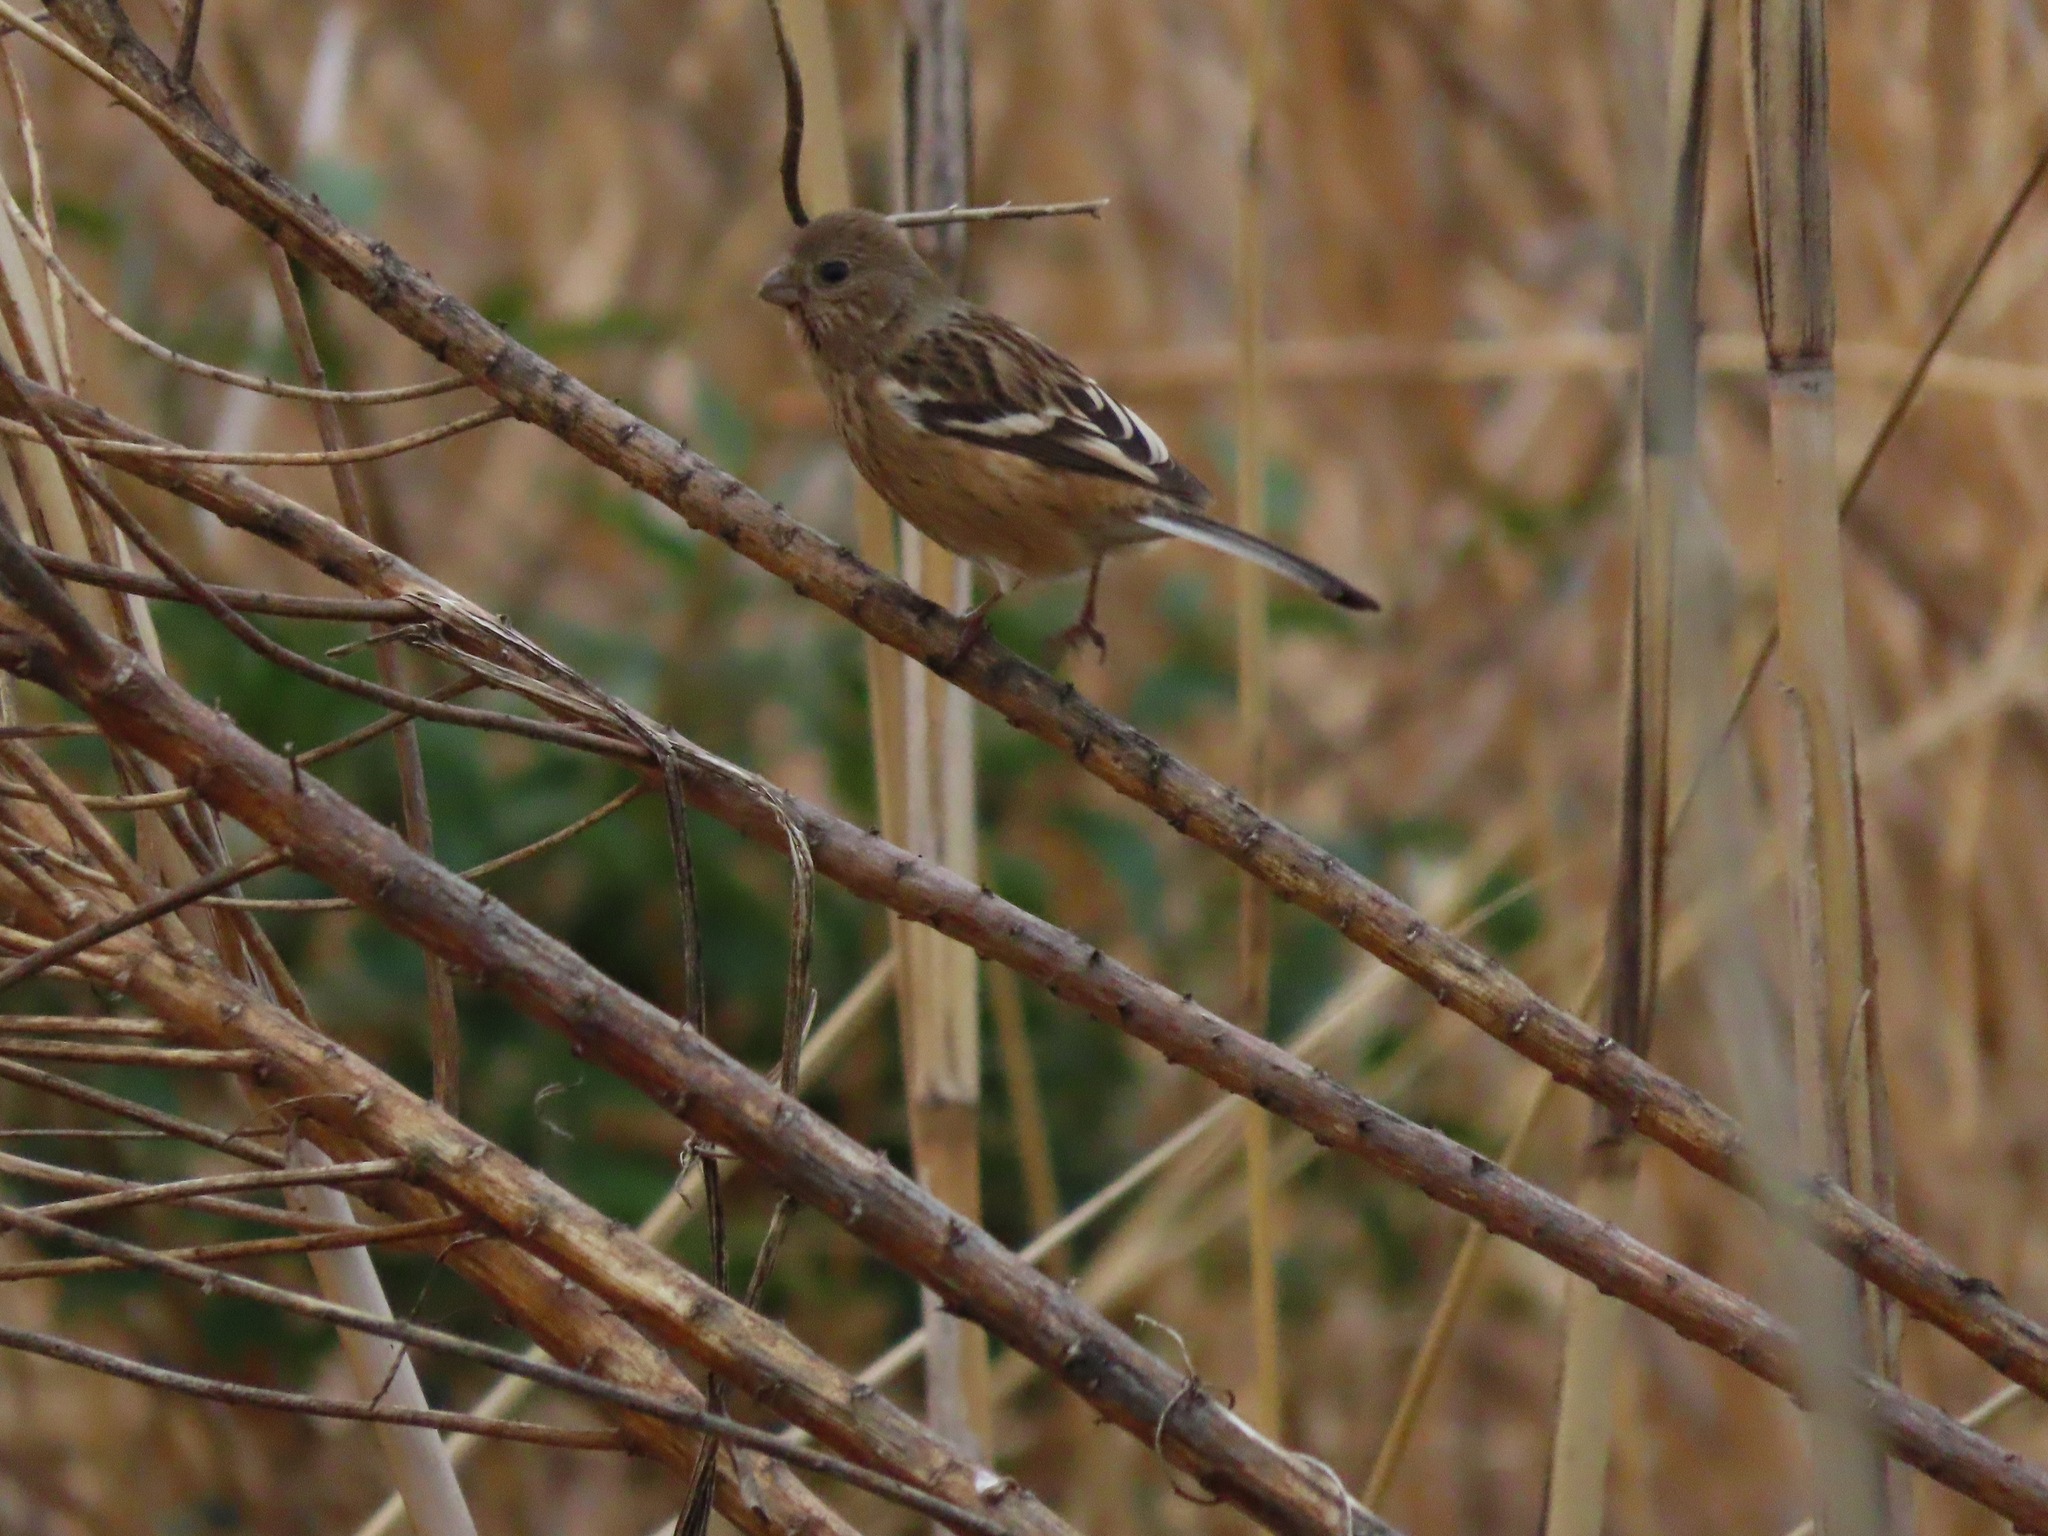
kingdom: Animalia
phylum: Chordata
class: Aves
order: Passeriformes
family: Fringillidae
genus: Carpodacus
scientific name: Carpodacus sibiricus
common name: Long-tailed rosefinch
